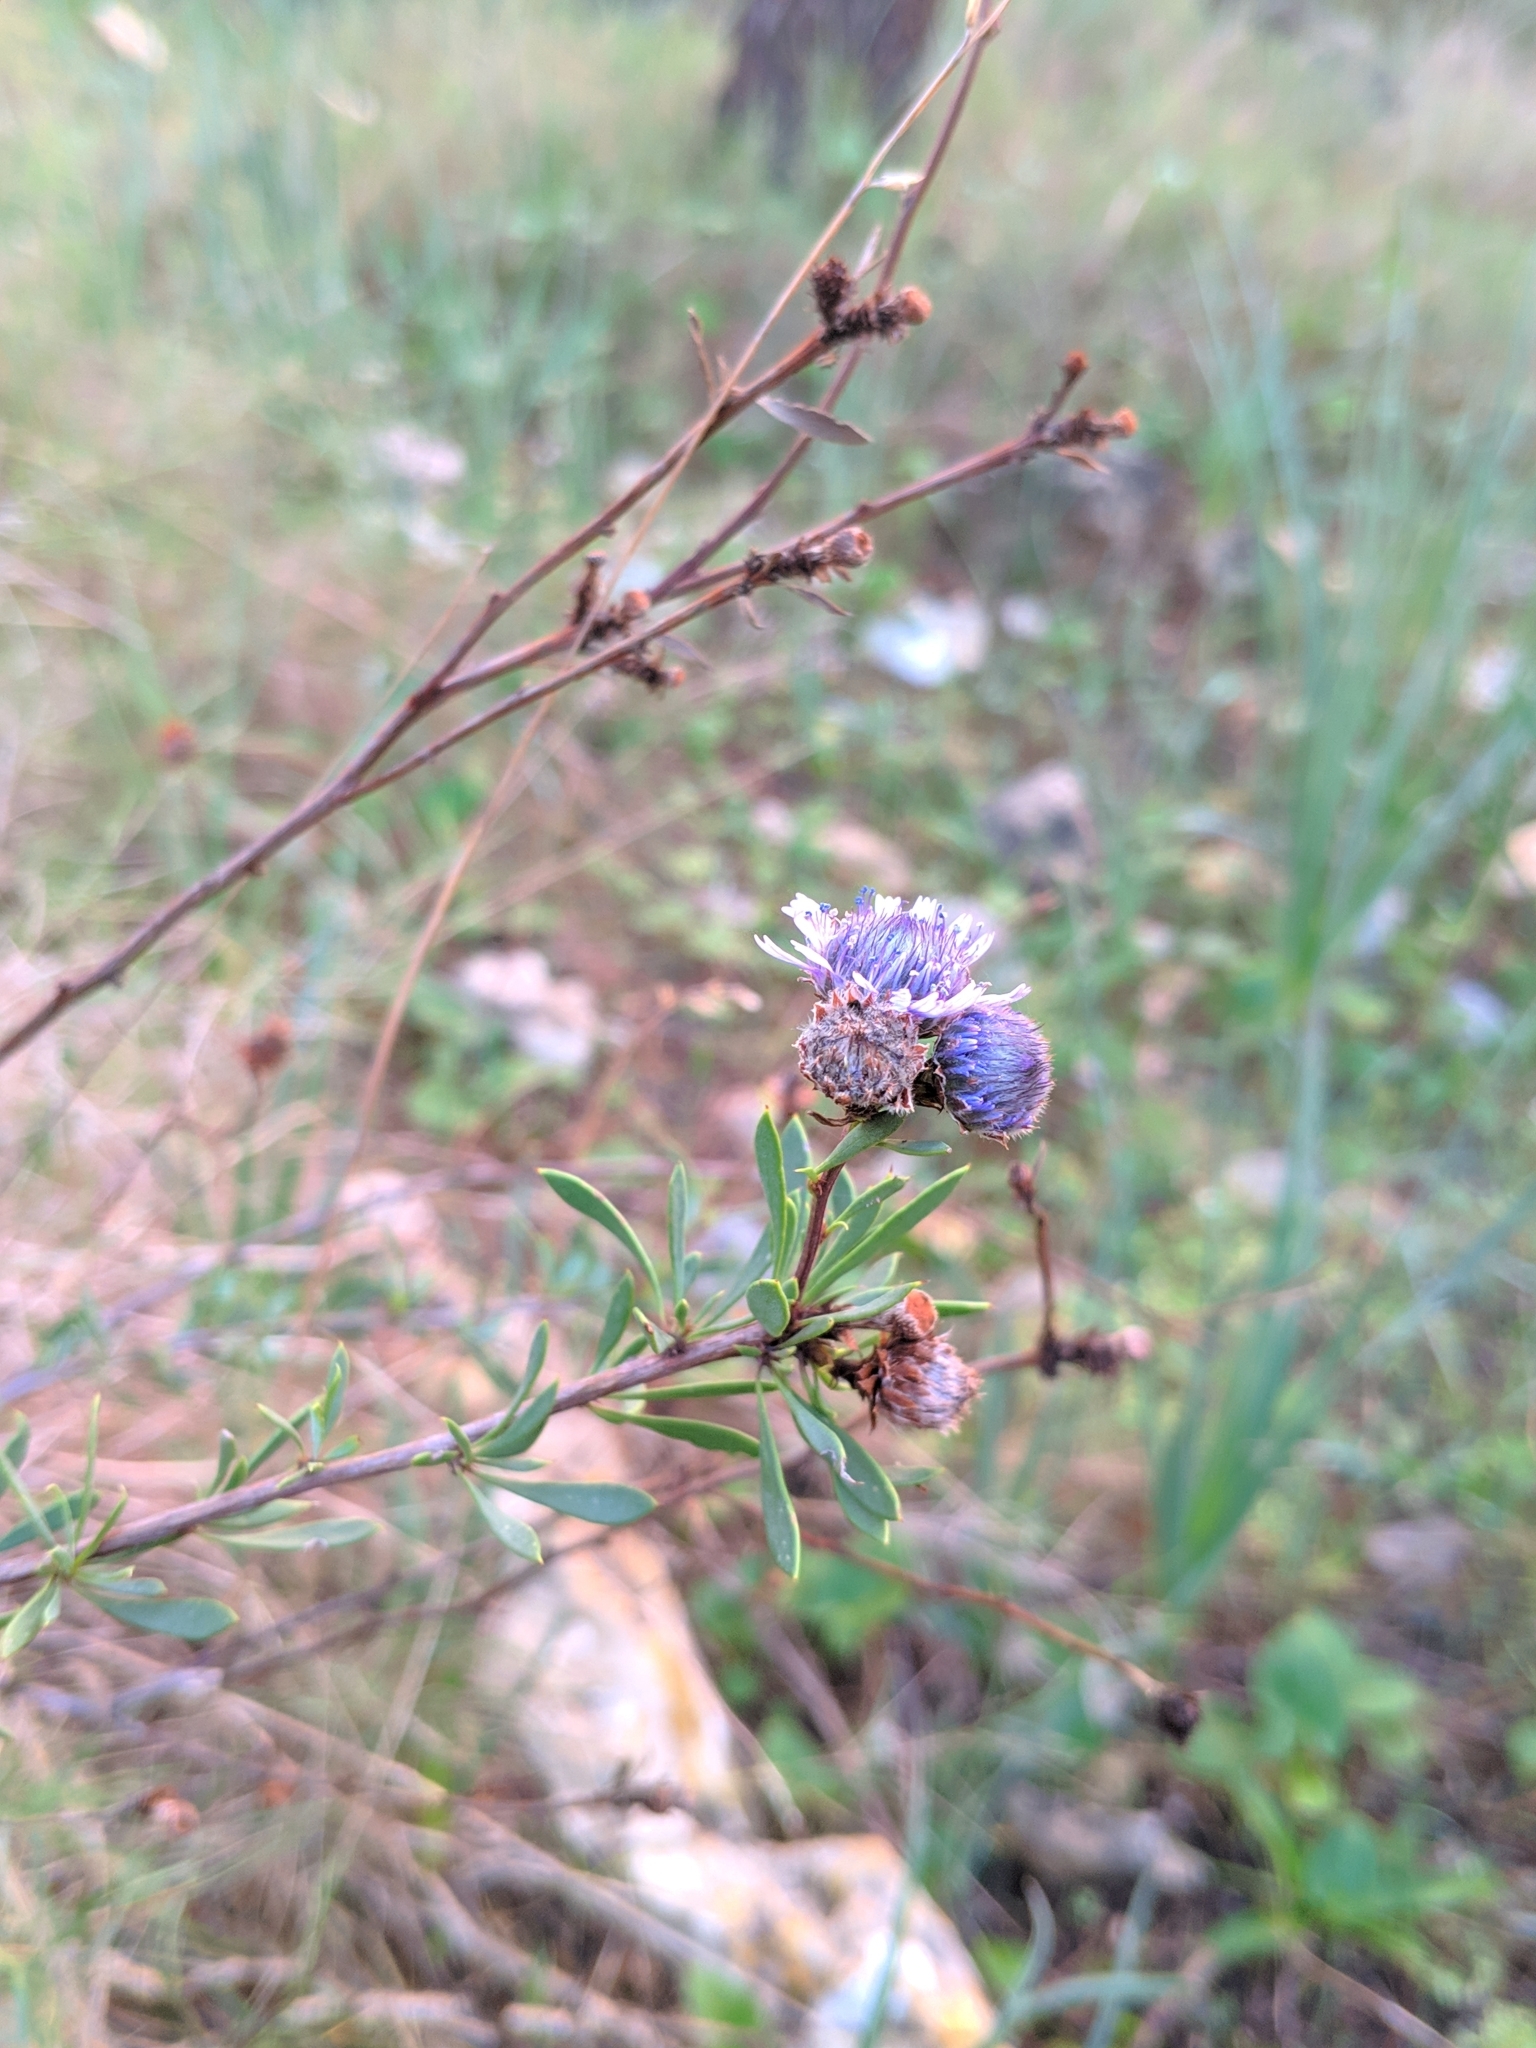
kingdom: Plantae
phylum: Tracheophyta
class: Magnoliopsida
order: Lamiales
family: Plantaginaceae
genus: Globularia
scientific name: Globularia alypum
